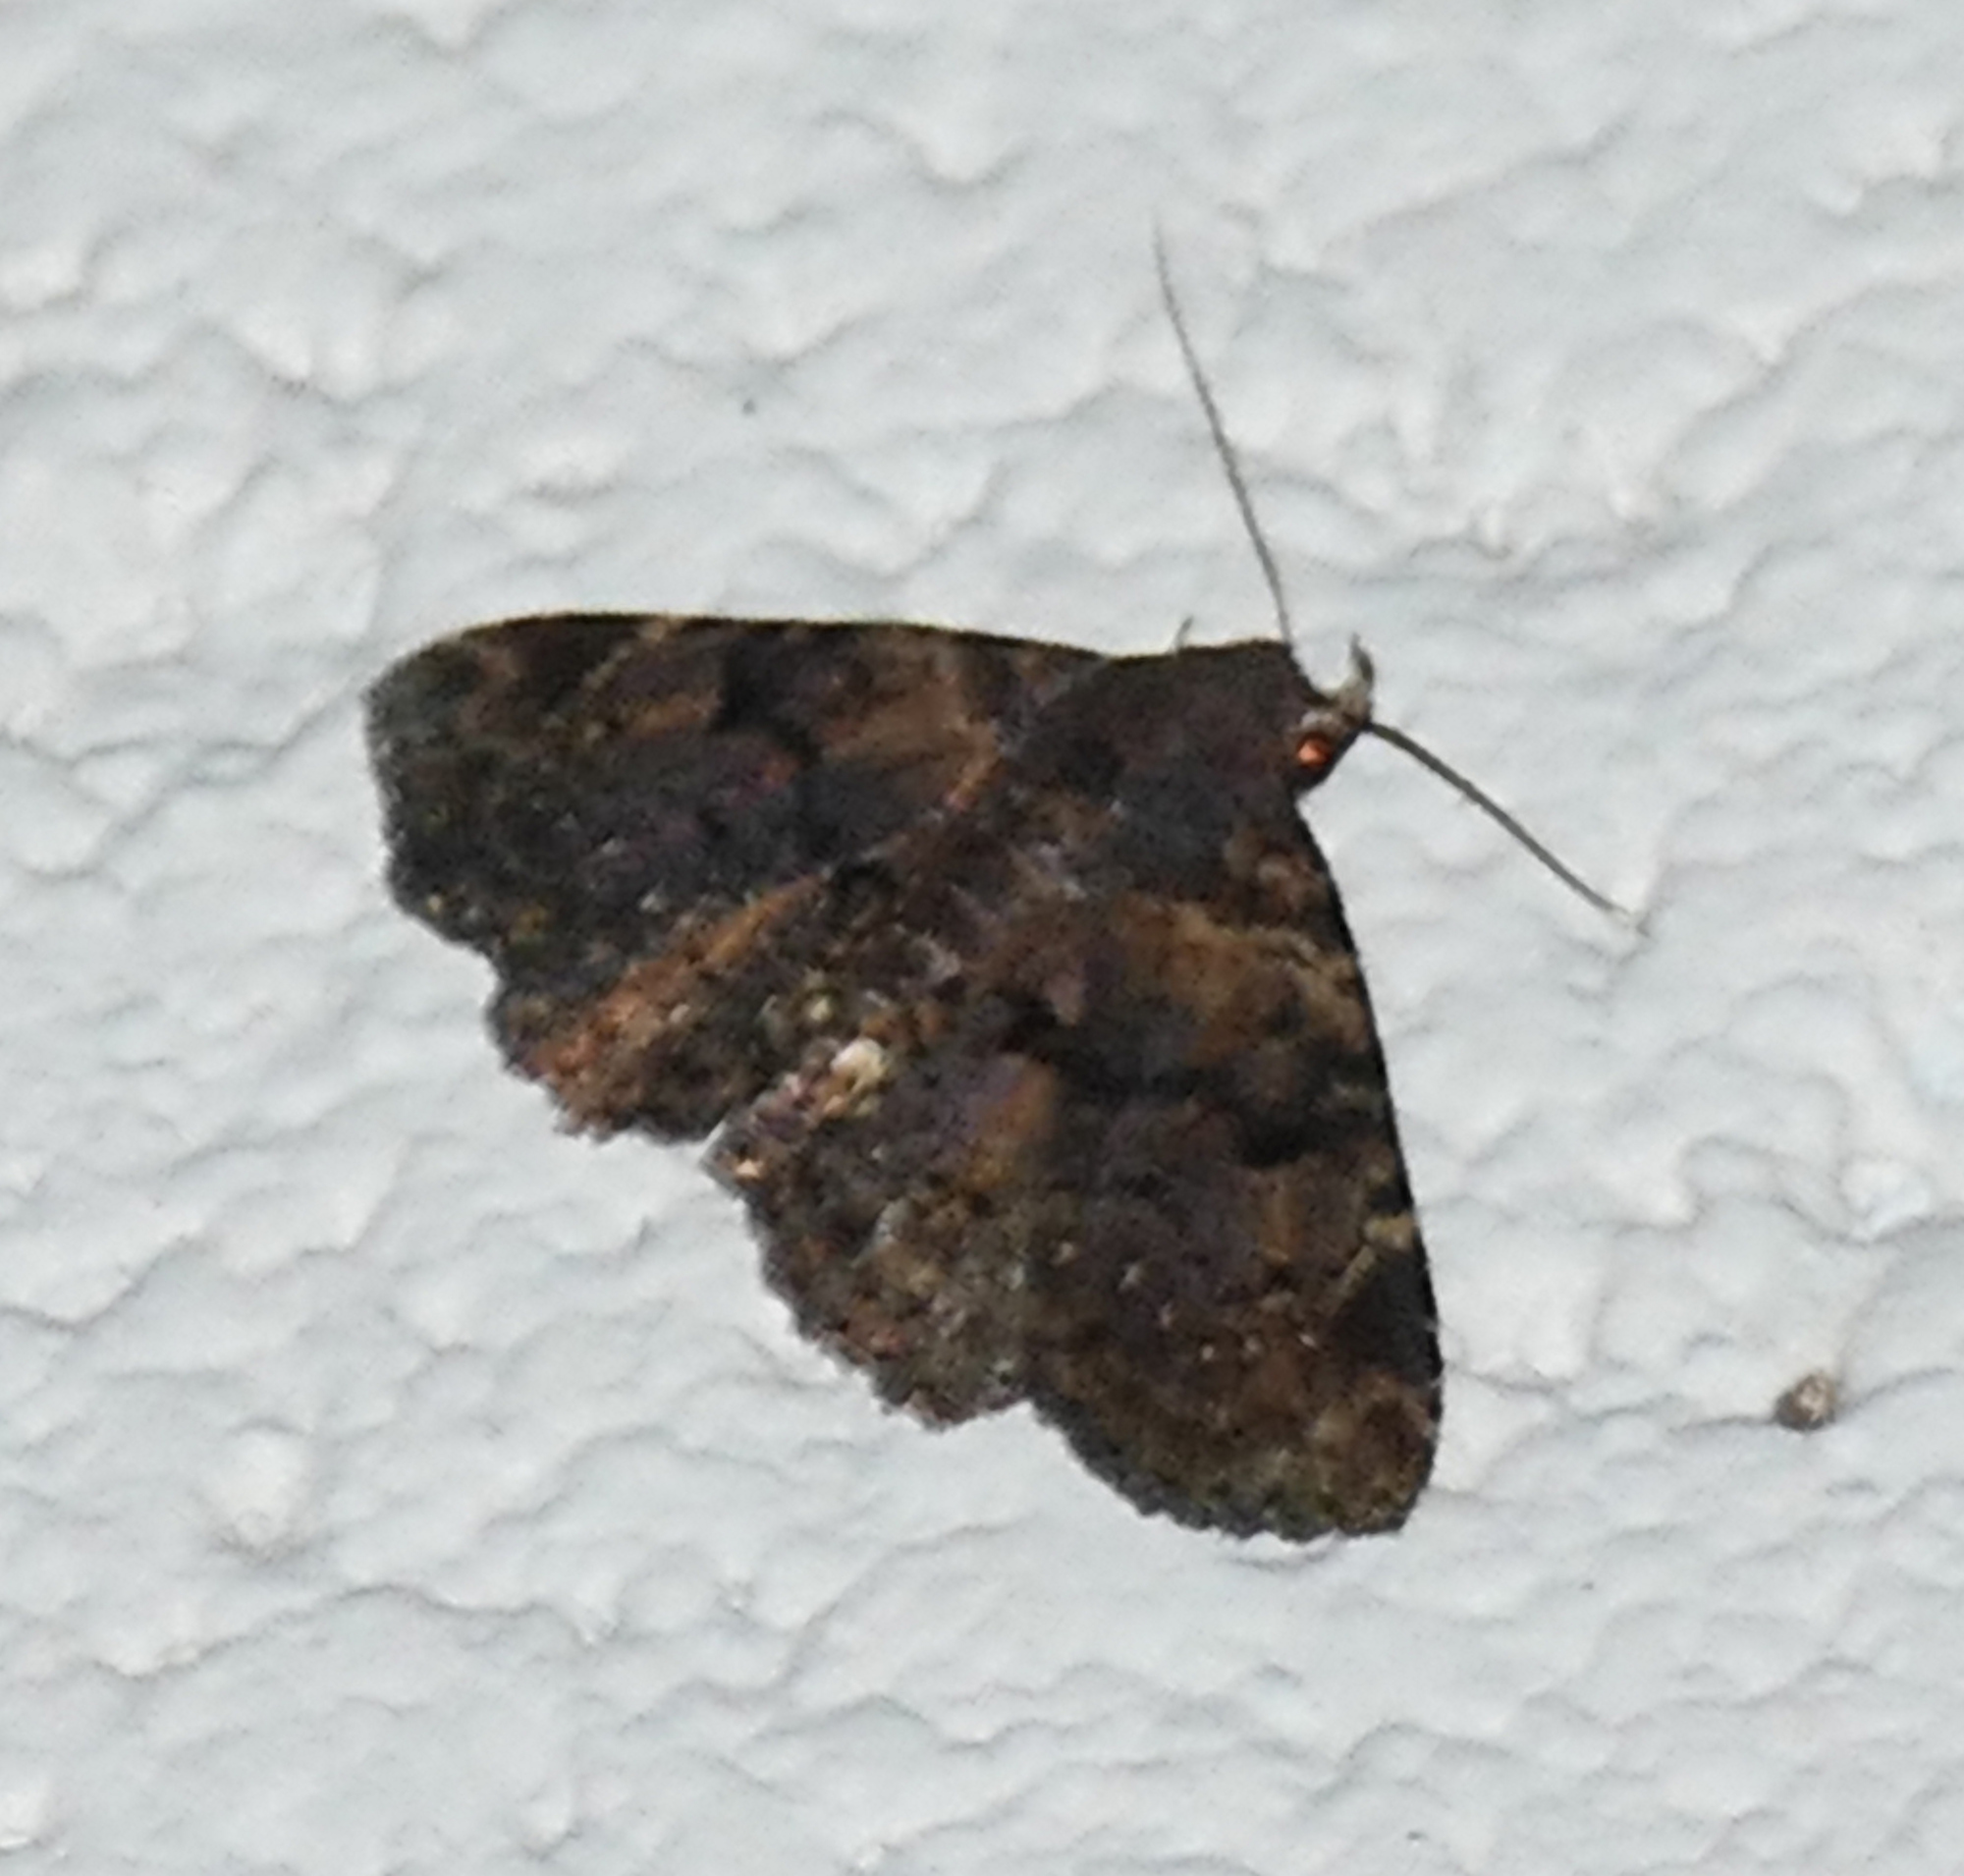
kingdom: Animalia
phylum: Arthropoda
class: Insecta
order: Lepidoptera
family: Erebidae
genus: Metalectra
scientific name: Metalectra discalis
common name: Common fungus moth
